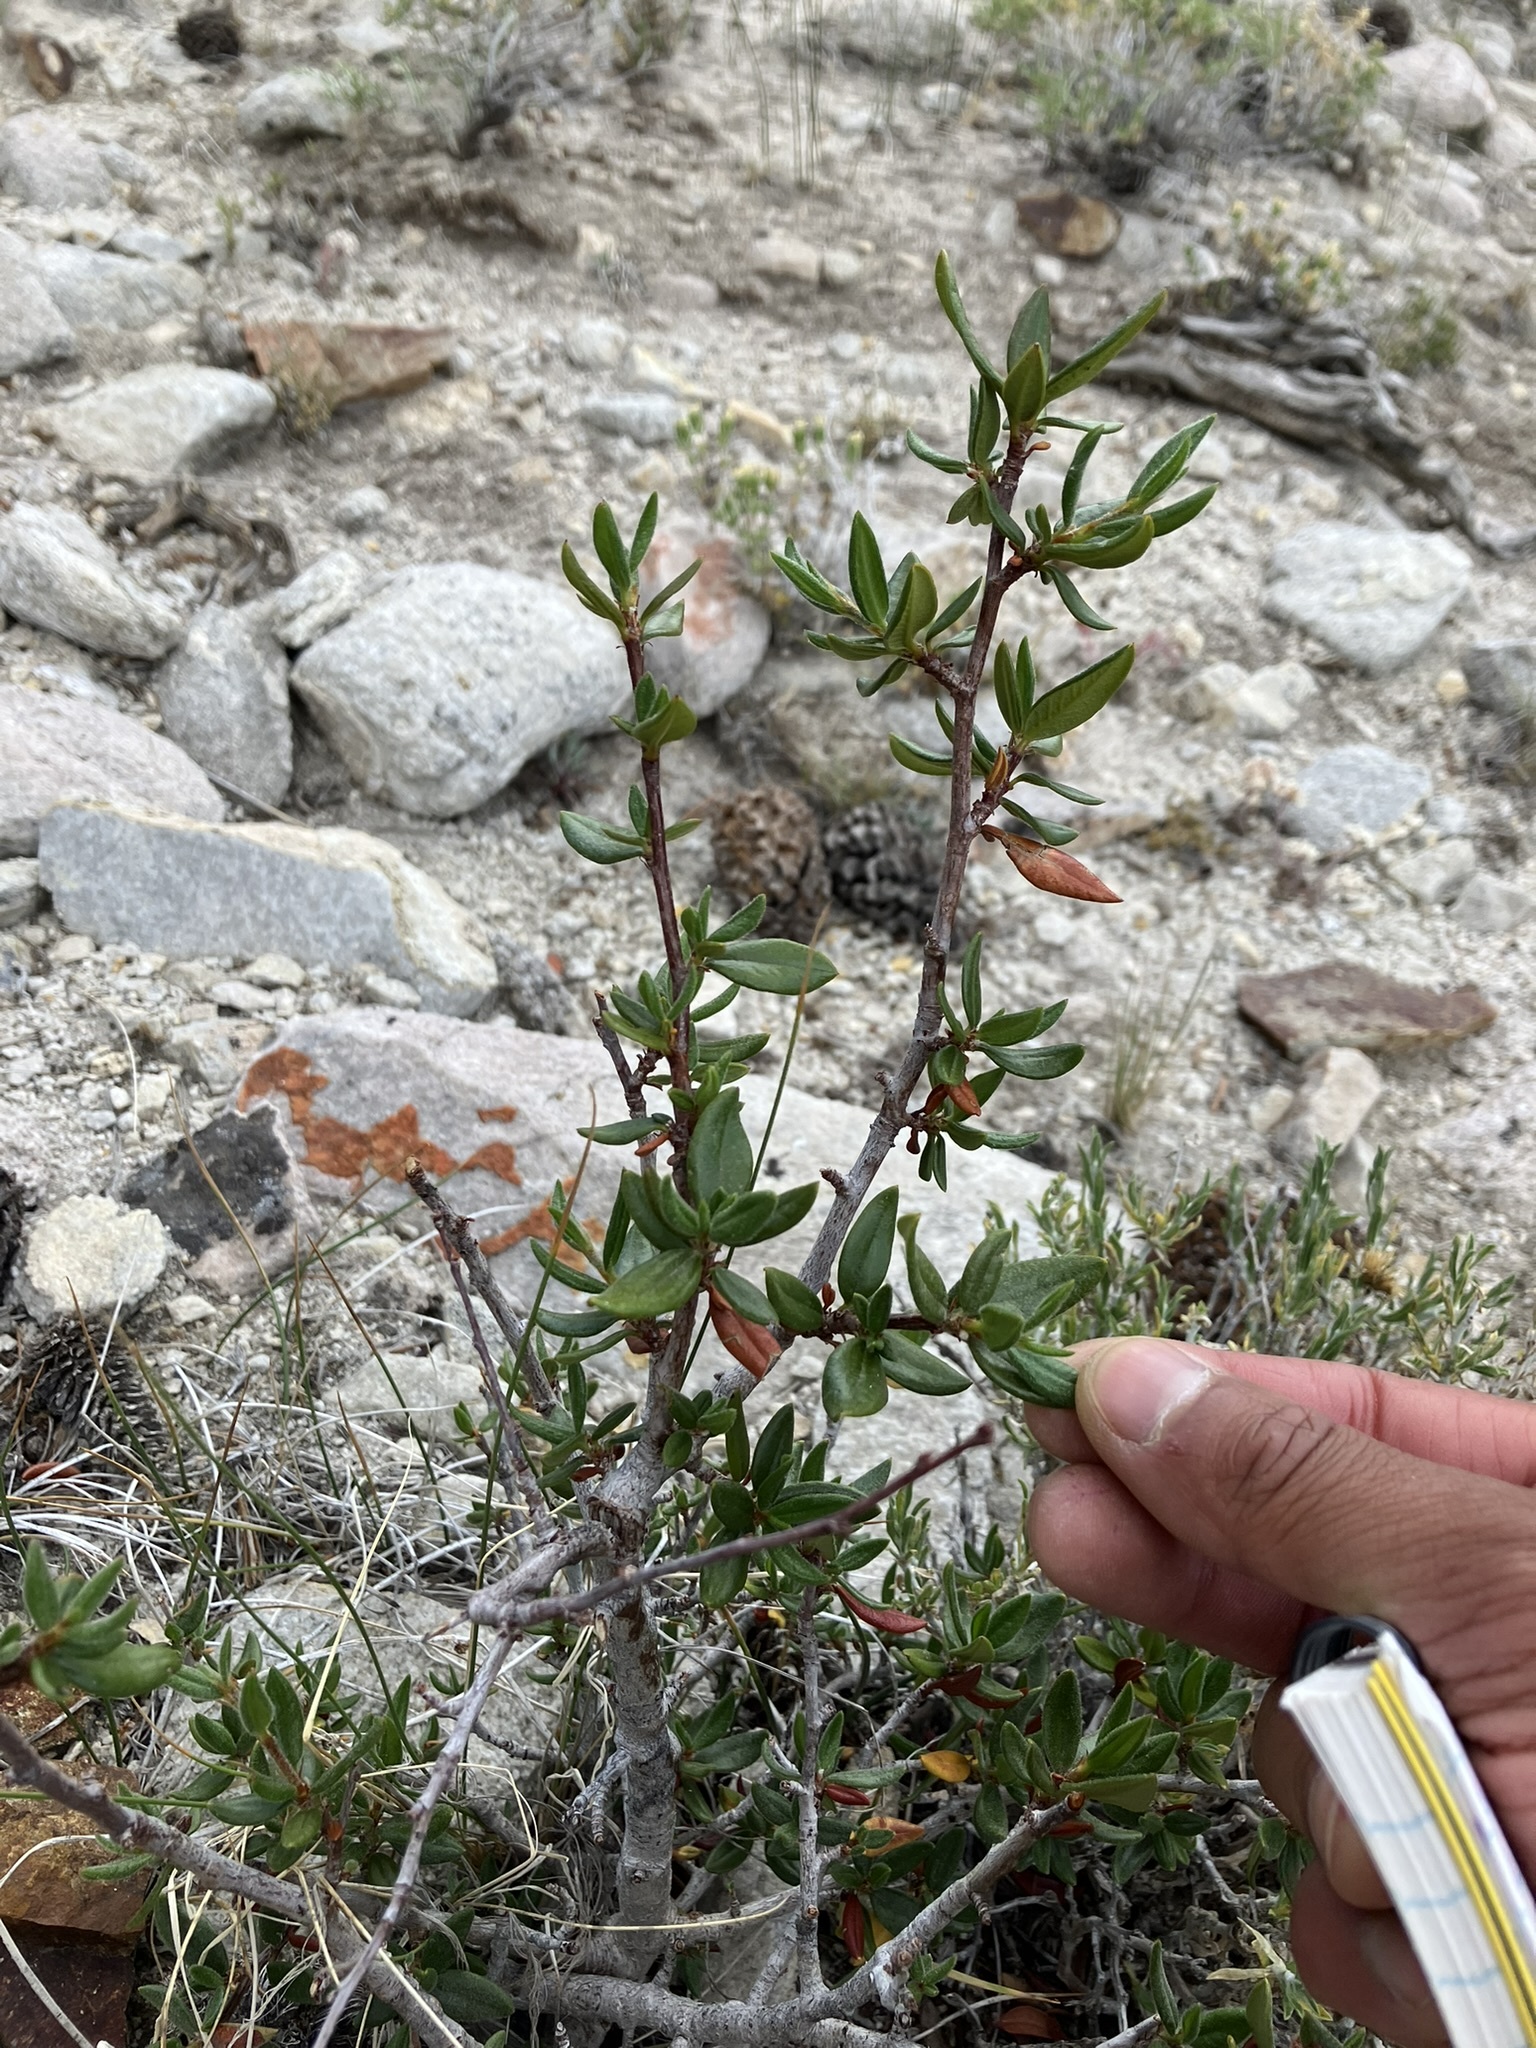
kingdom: Plantae
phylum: Tracheophyta
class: Magnoliopsida
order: Rosales
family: Rosaceae
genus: Cercocarpus
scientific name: Cercocarpus ledifolius
